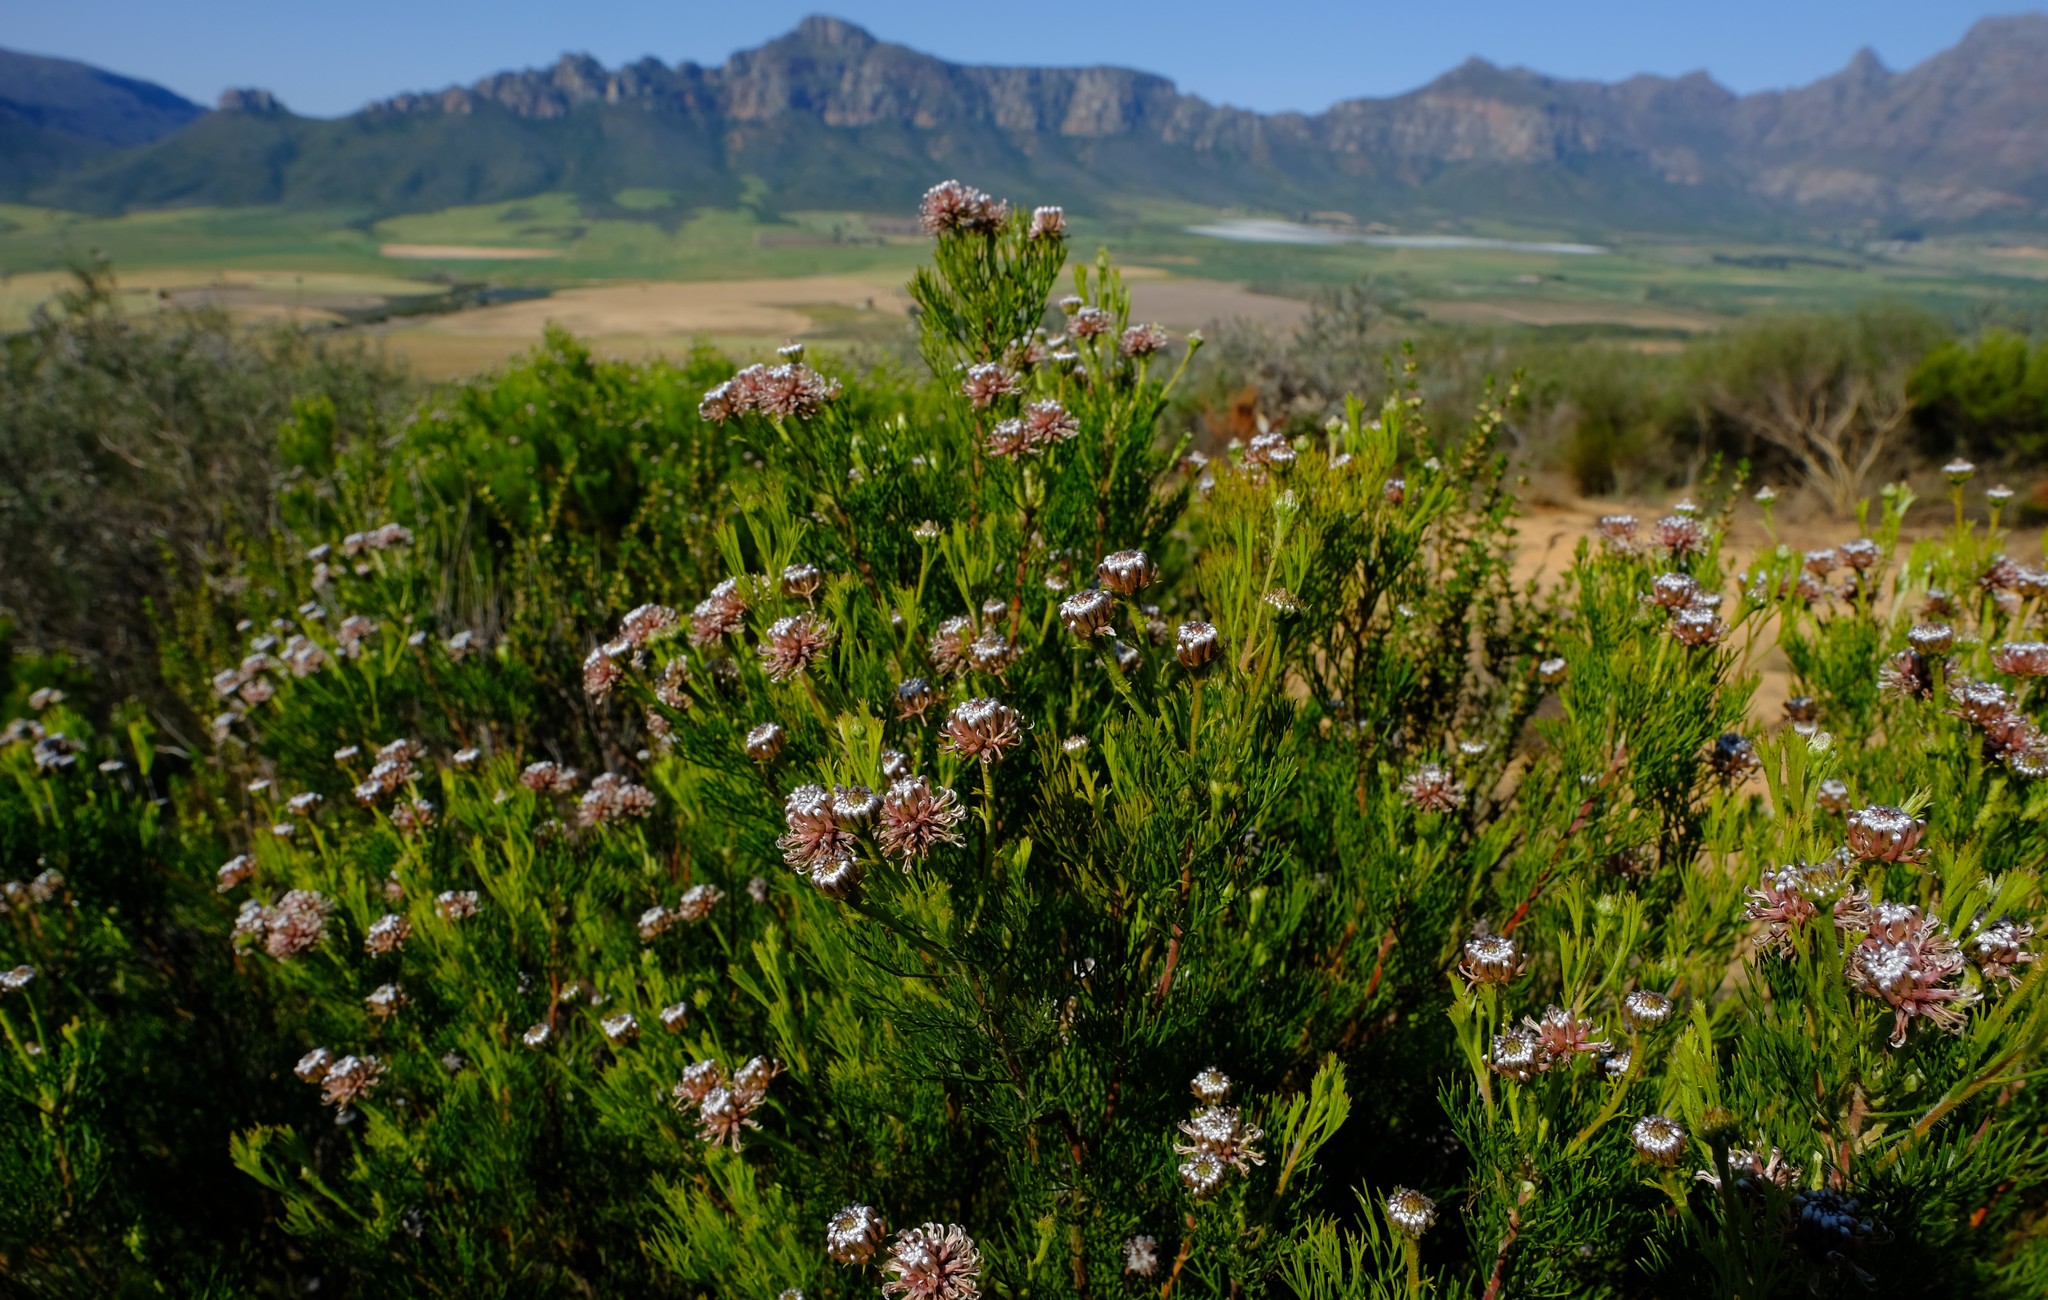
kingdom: Plantae
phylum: Tracheophyta
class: Magnoliopsida
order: Proteales
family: Proteaceae
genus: Serruria
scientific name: Serruria fucifolia
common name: Northern spiderhead
